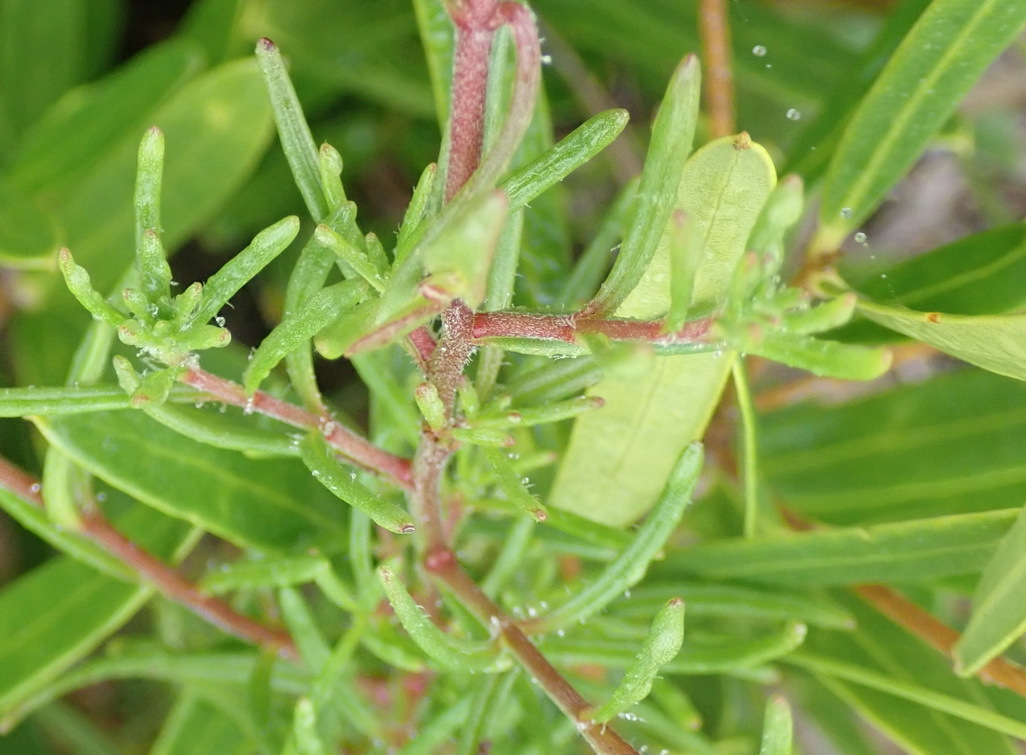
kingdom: Plantae
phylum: Tracheophyta
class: Magnoliopsida
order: Lamiales
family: Scrophulariaceae
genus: Zaluzianskya
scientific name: Zaluzianskya capensis
